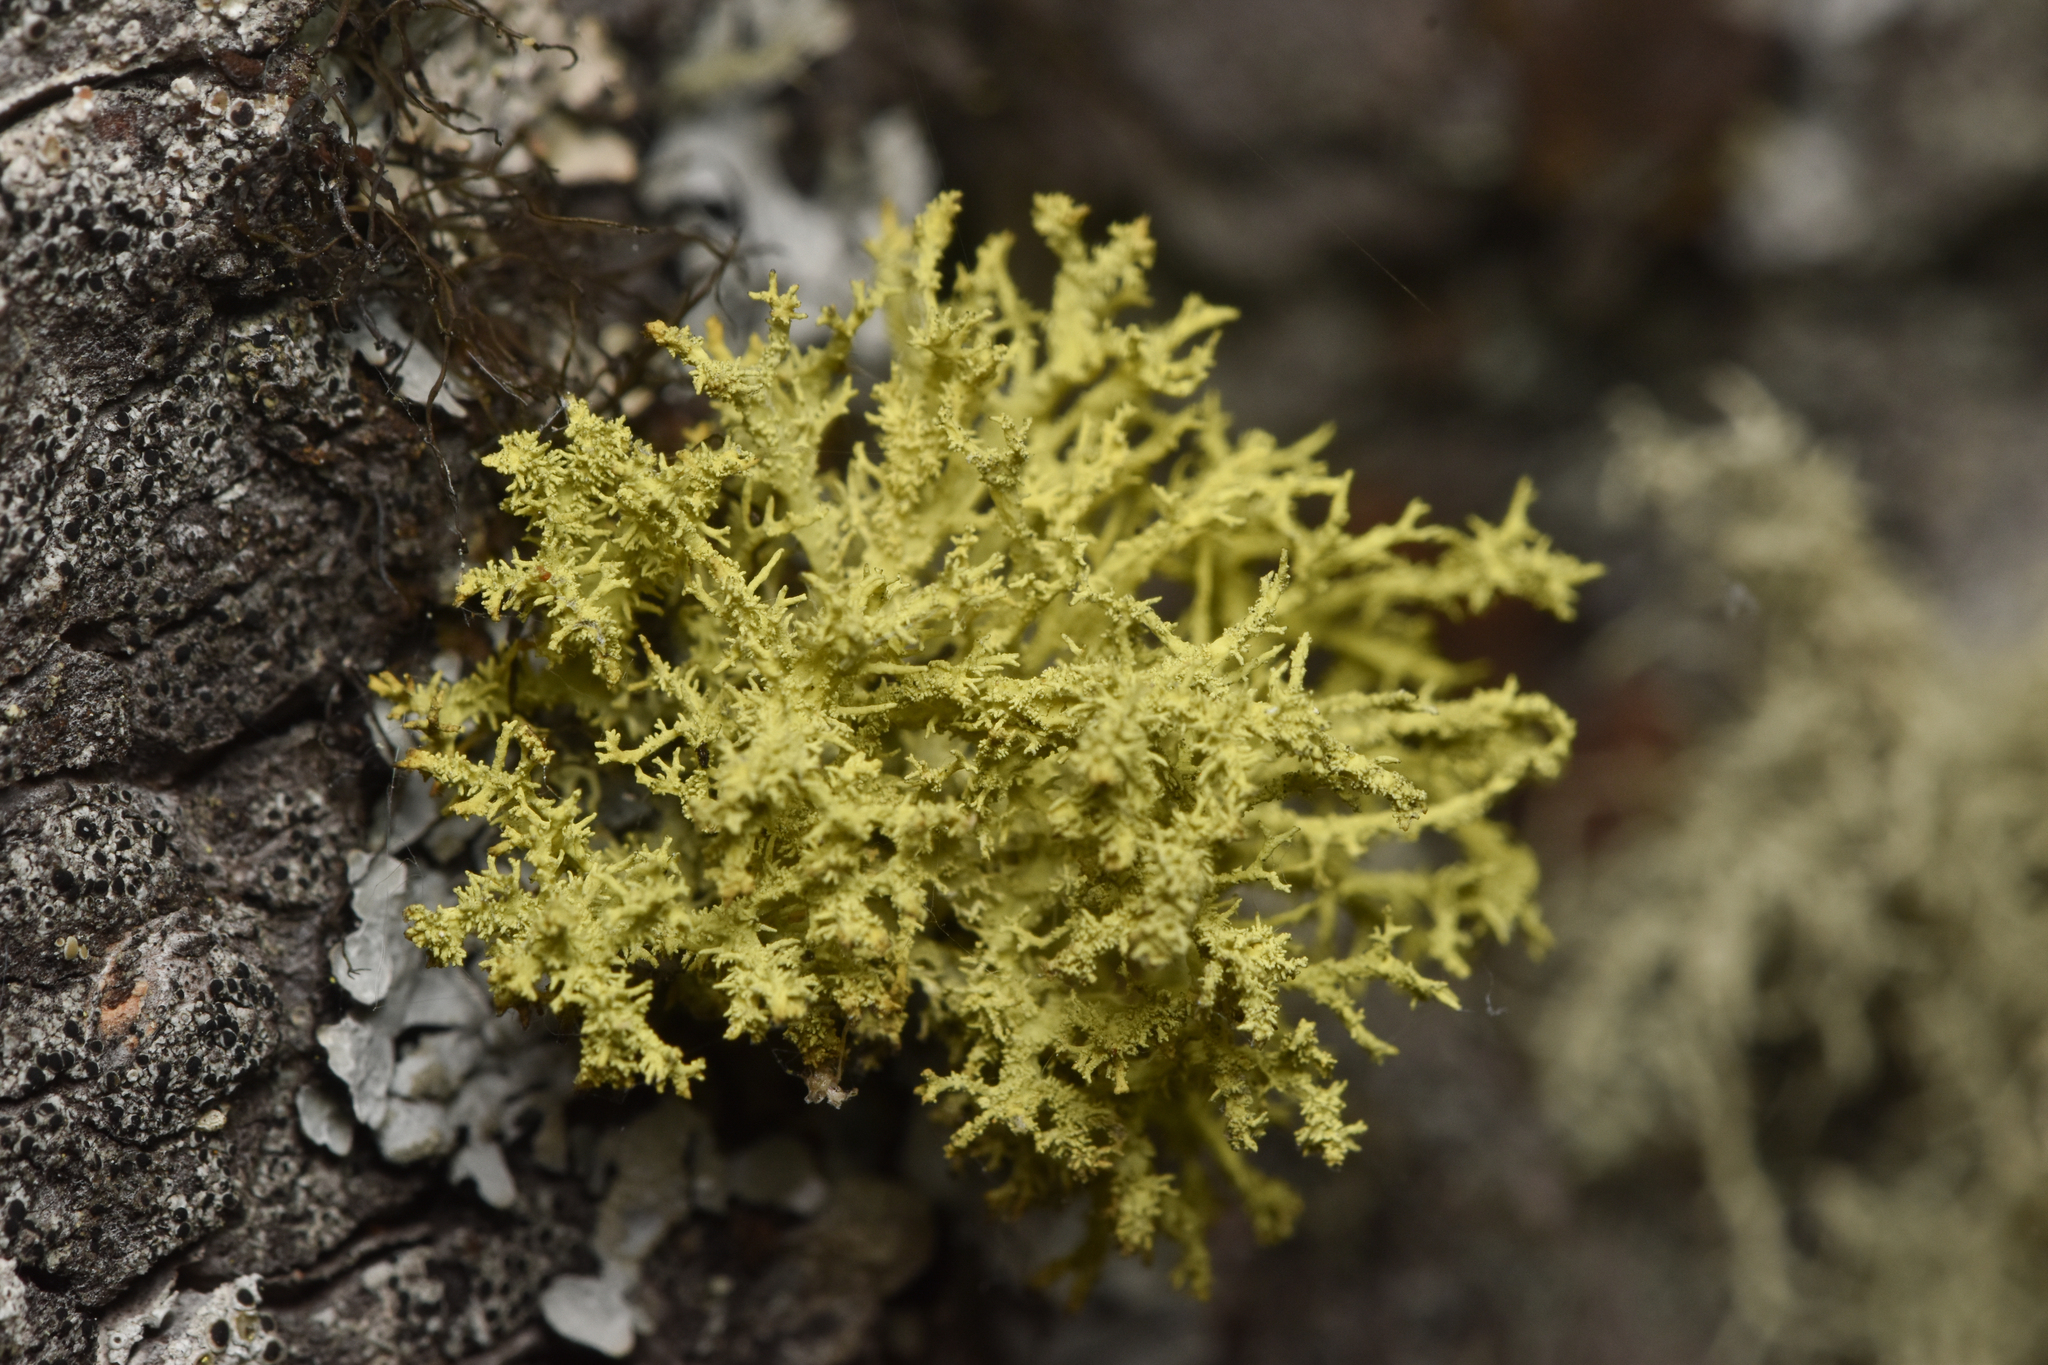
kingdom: Fungi
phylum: Ascomycota
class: Lecanoromycetes
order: Lecanorales
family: Parmeliaceae
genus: Letharia
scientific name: Letharia vulpina
